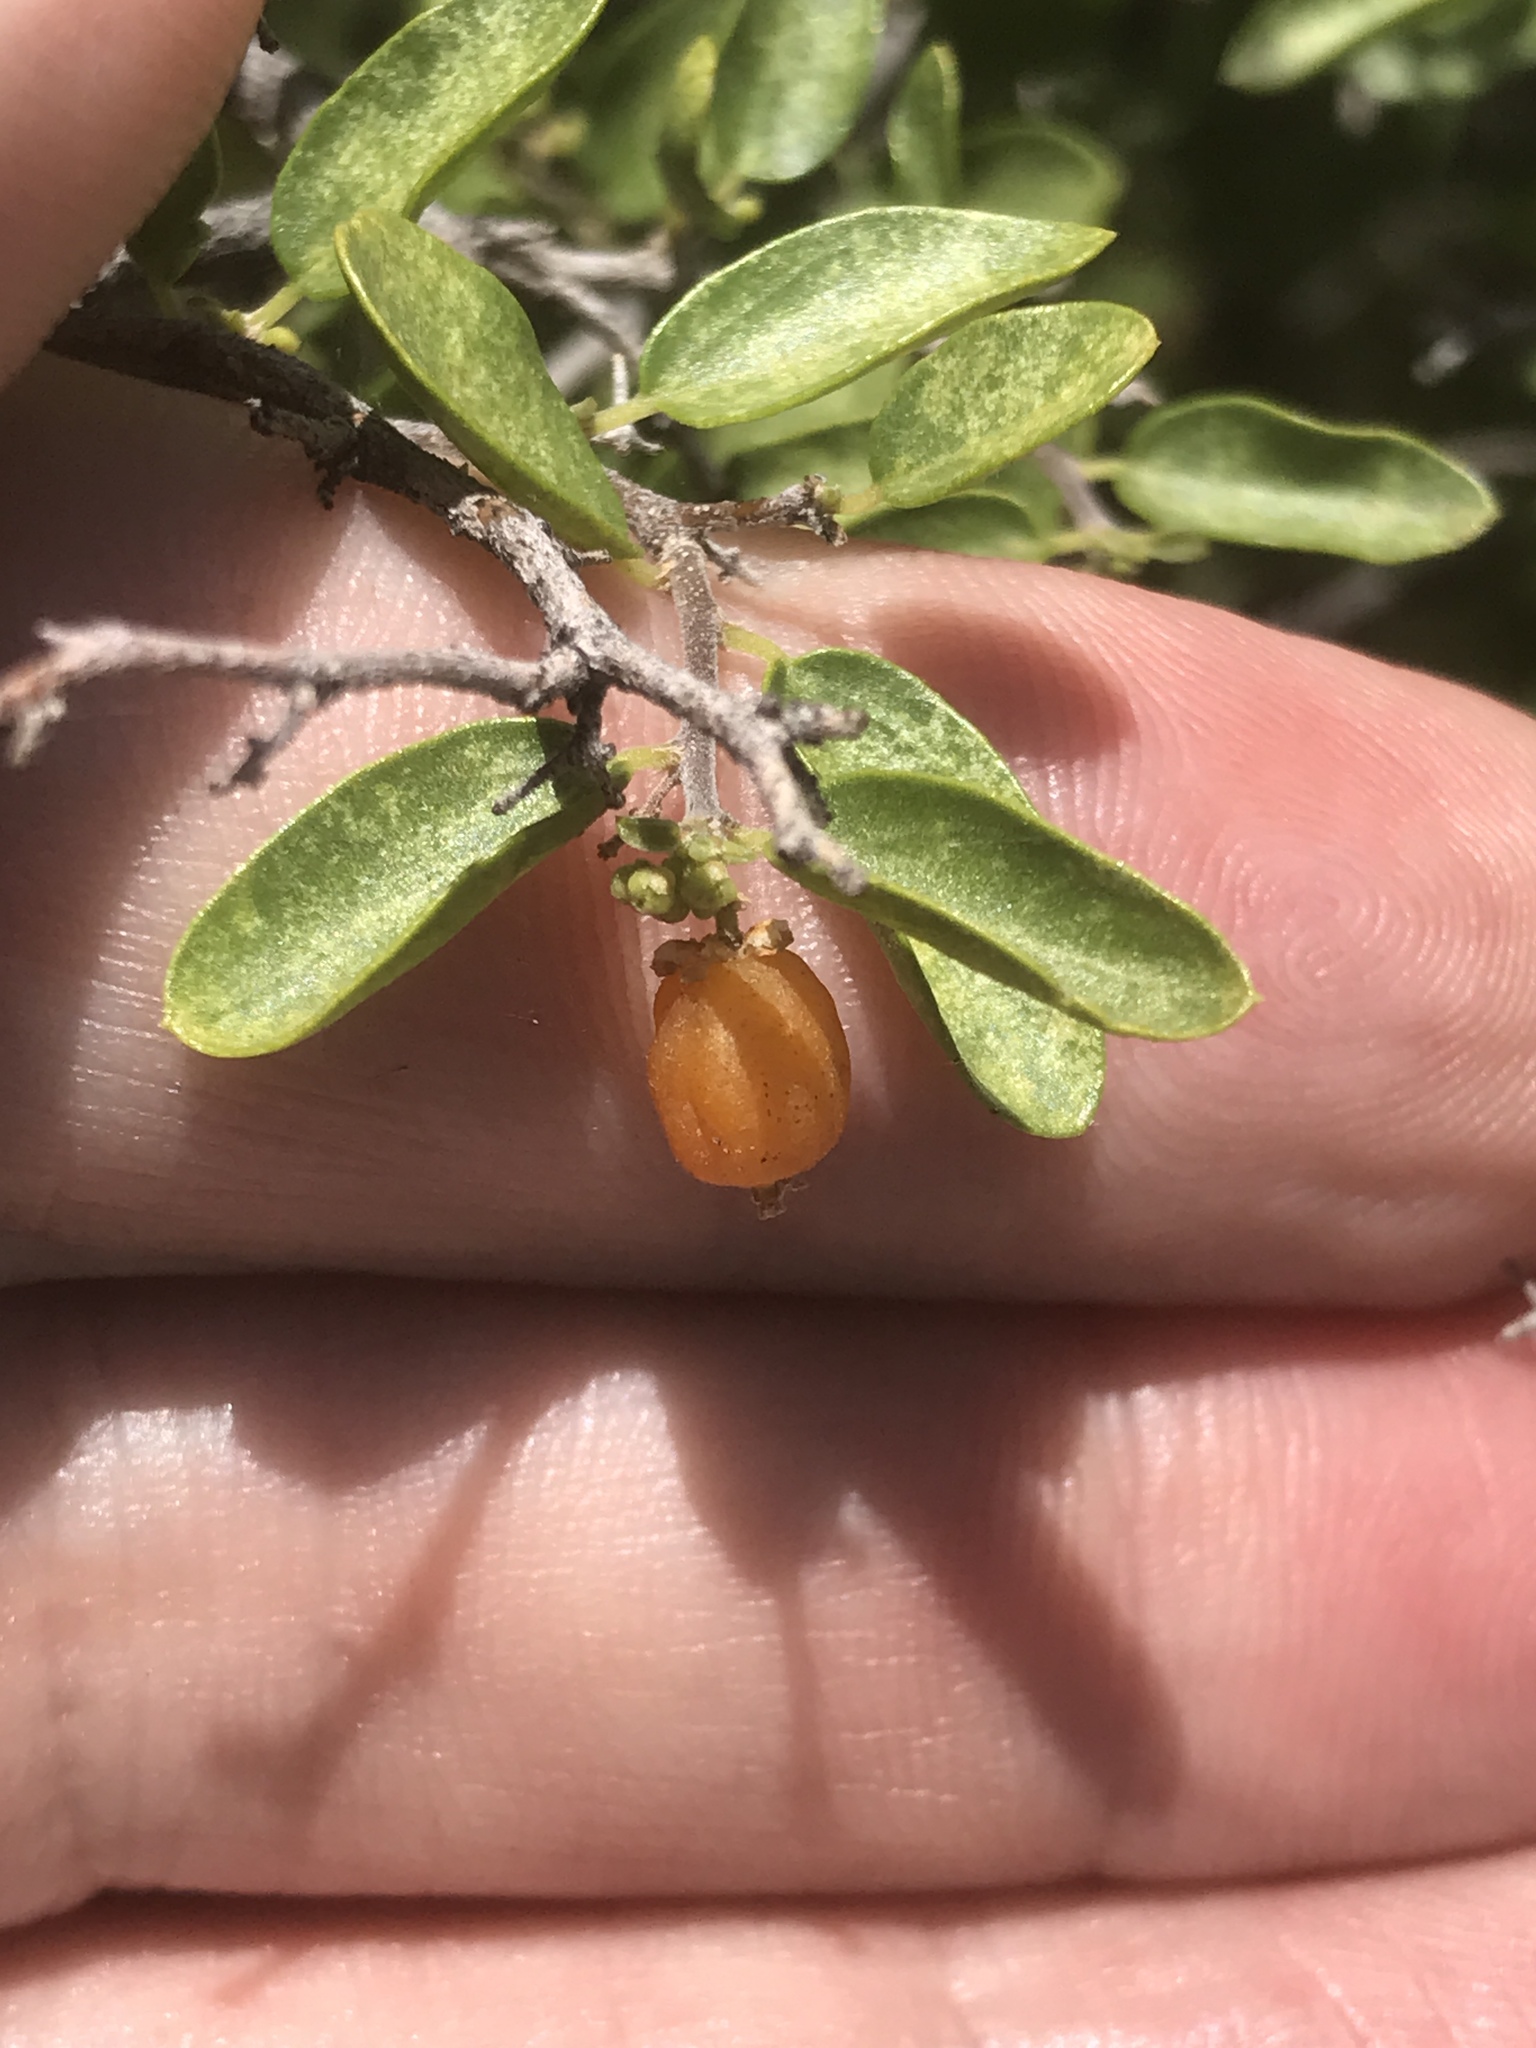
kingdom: Plantae
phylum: Tracheophyta
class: Magnoliopsida
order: Rosales
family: Cannabaceae
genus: Celtis
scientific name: Celtis pallida
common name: Desert hackberry
